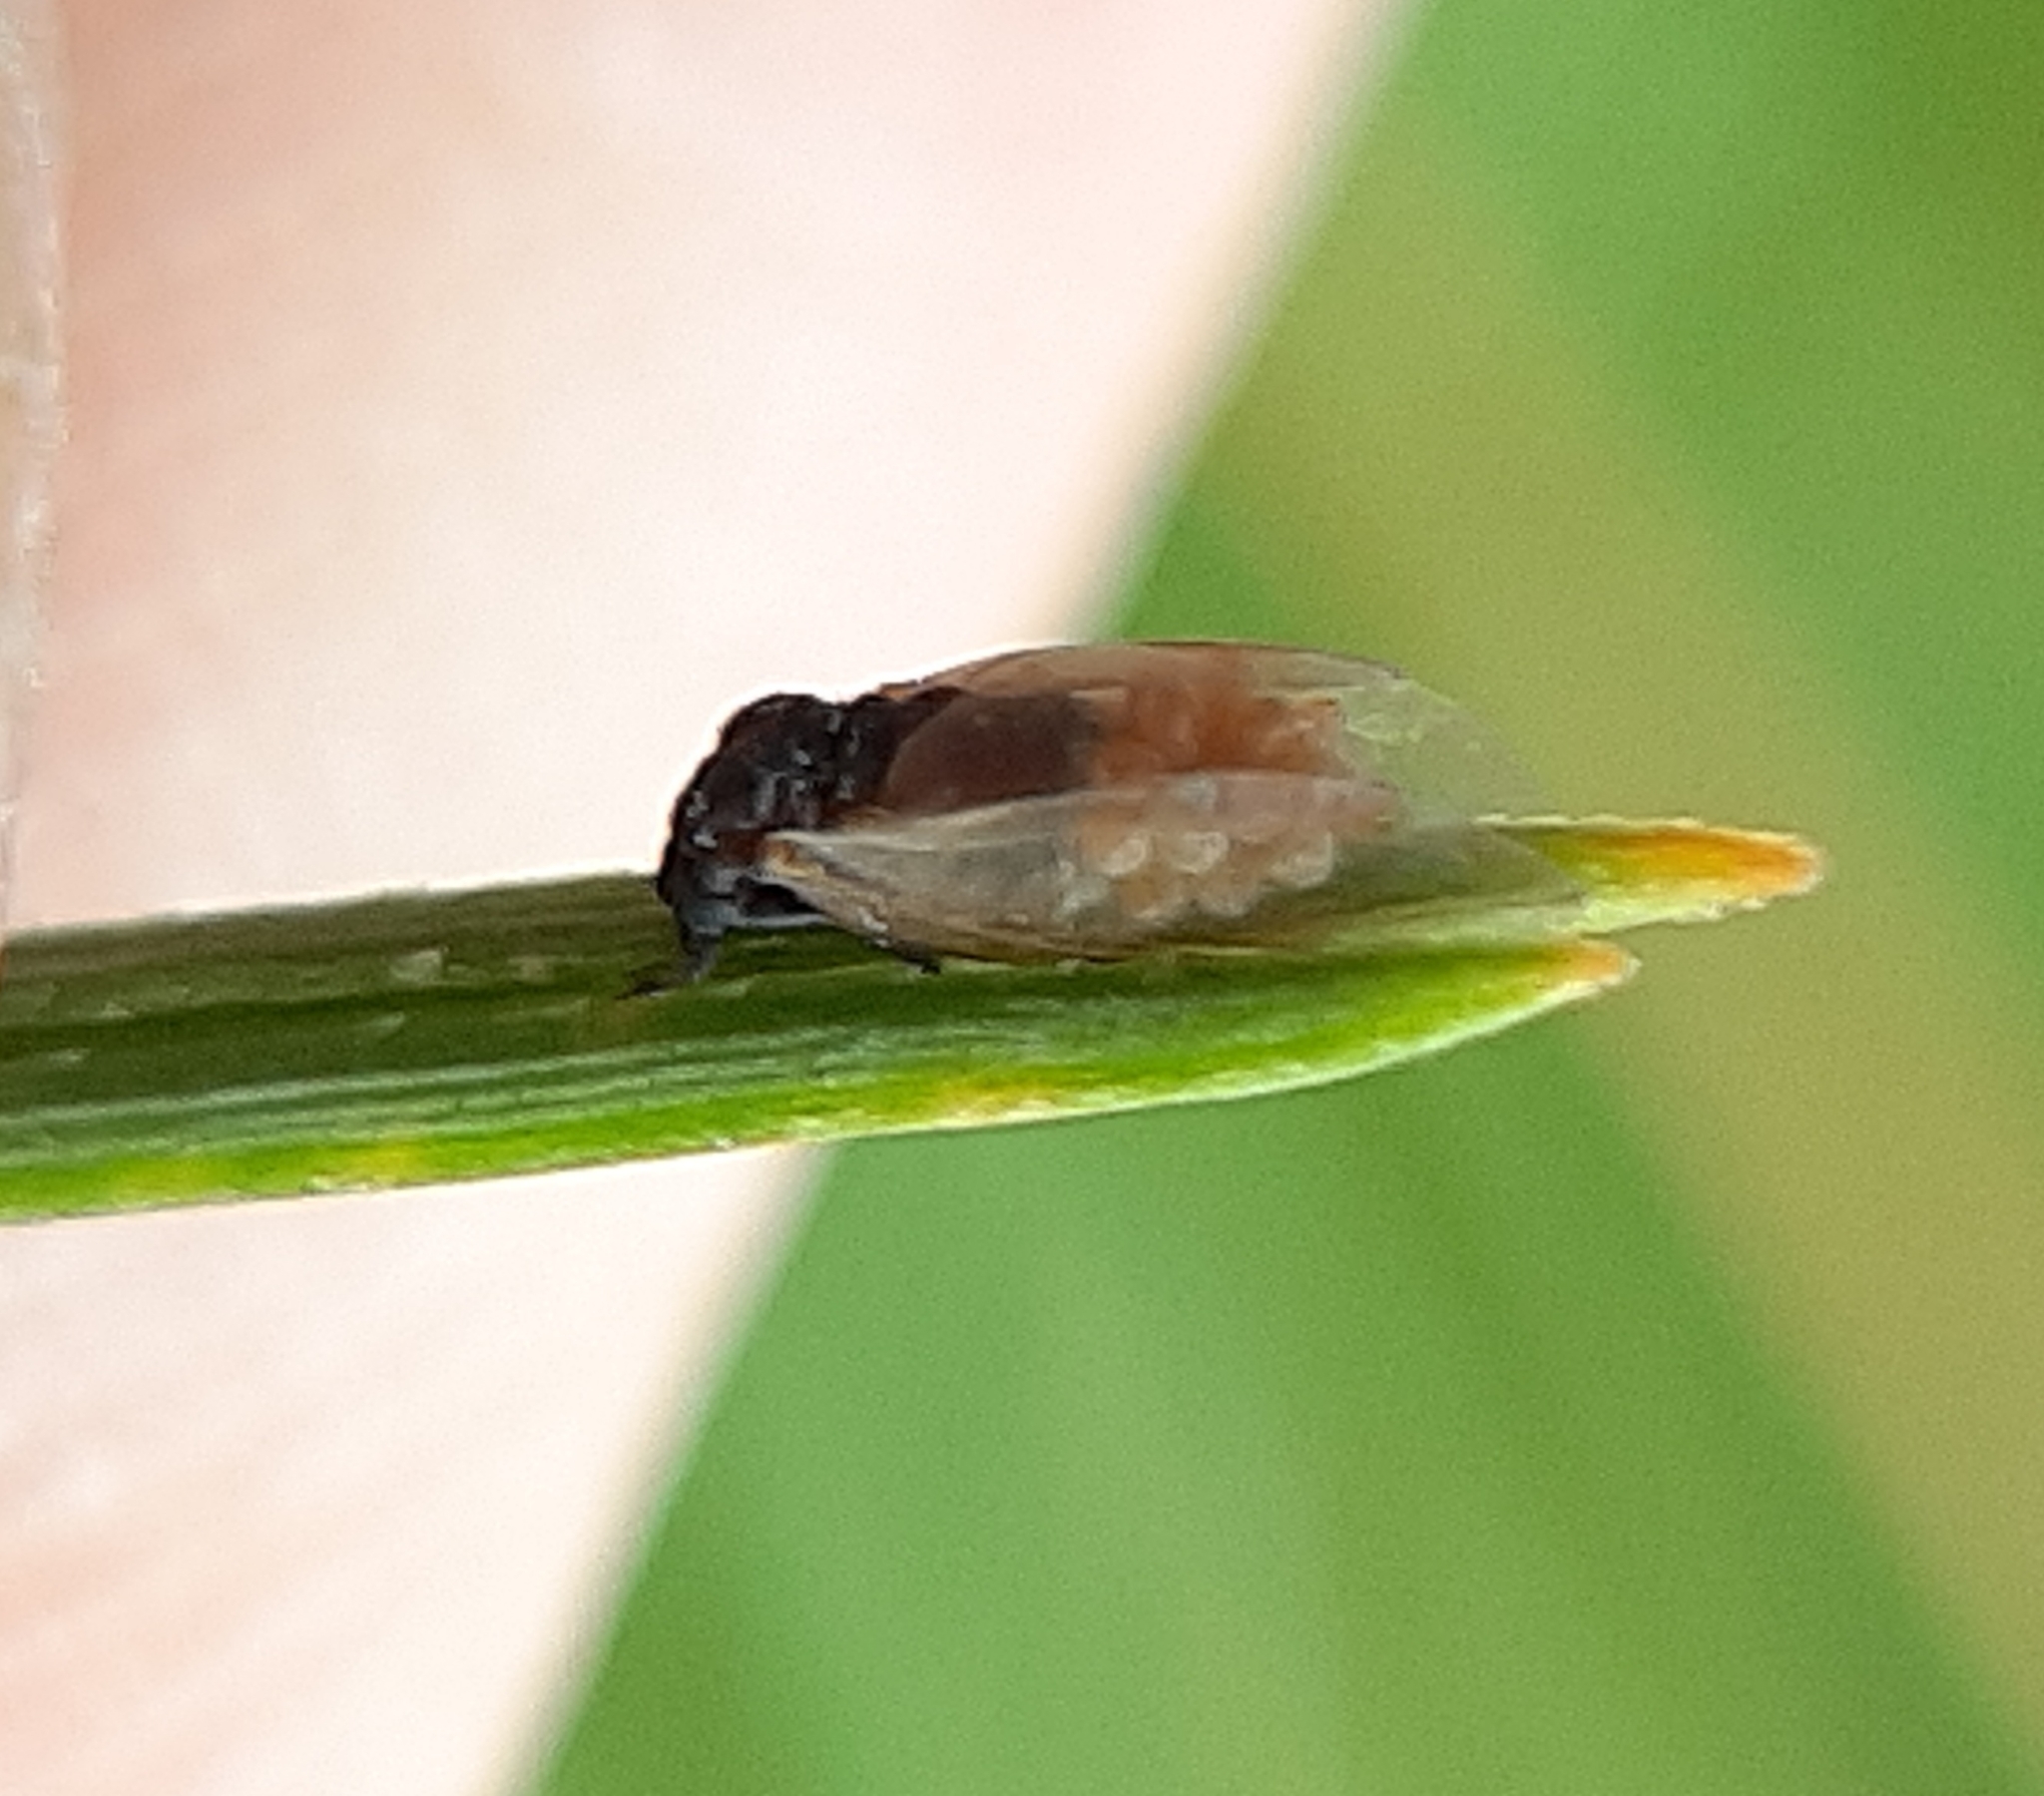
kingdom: Animalia
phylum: Arthropoda
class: Insecta
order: Hemiptera
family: Adelgidae
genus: Pineus
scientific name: Pineus pinifoliae
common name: Pine leaf adelgid
